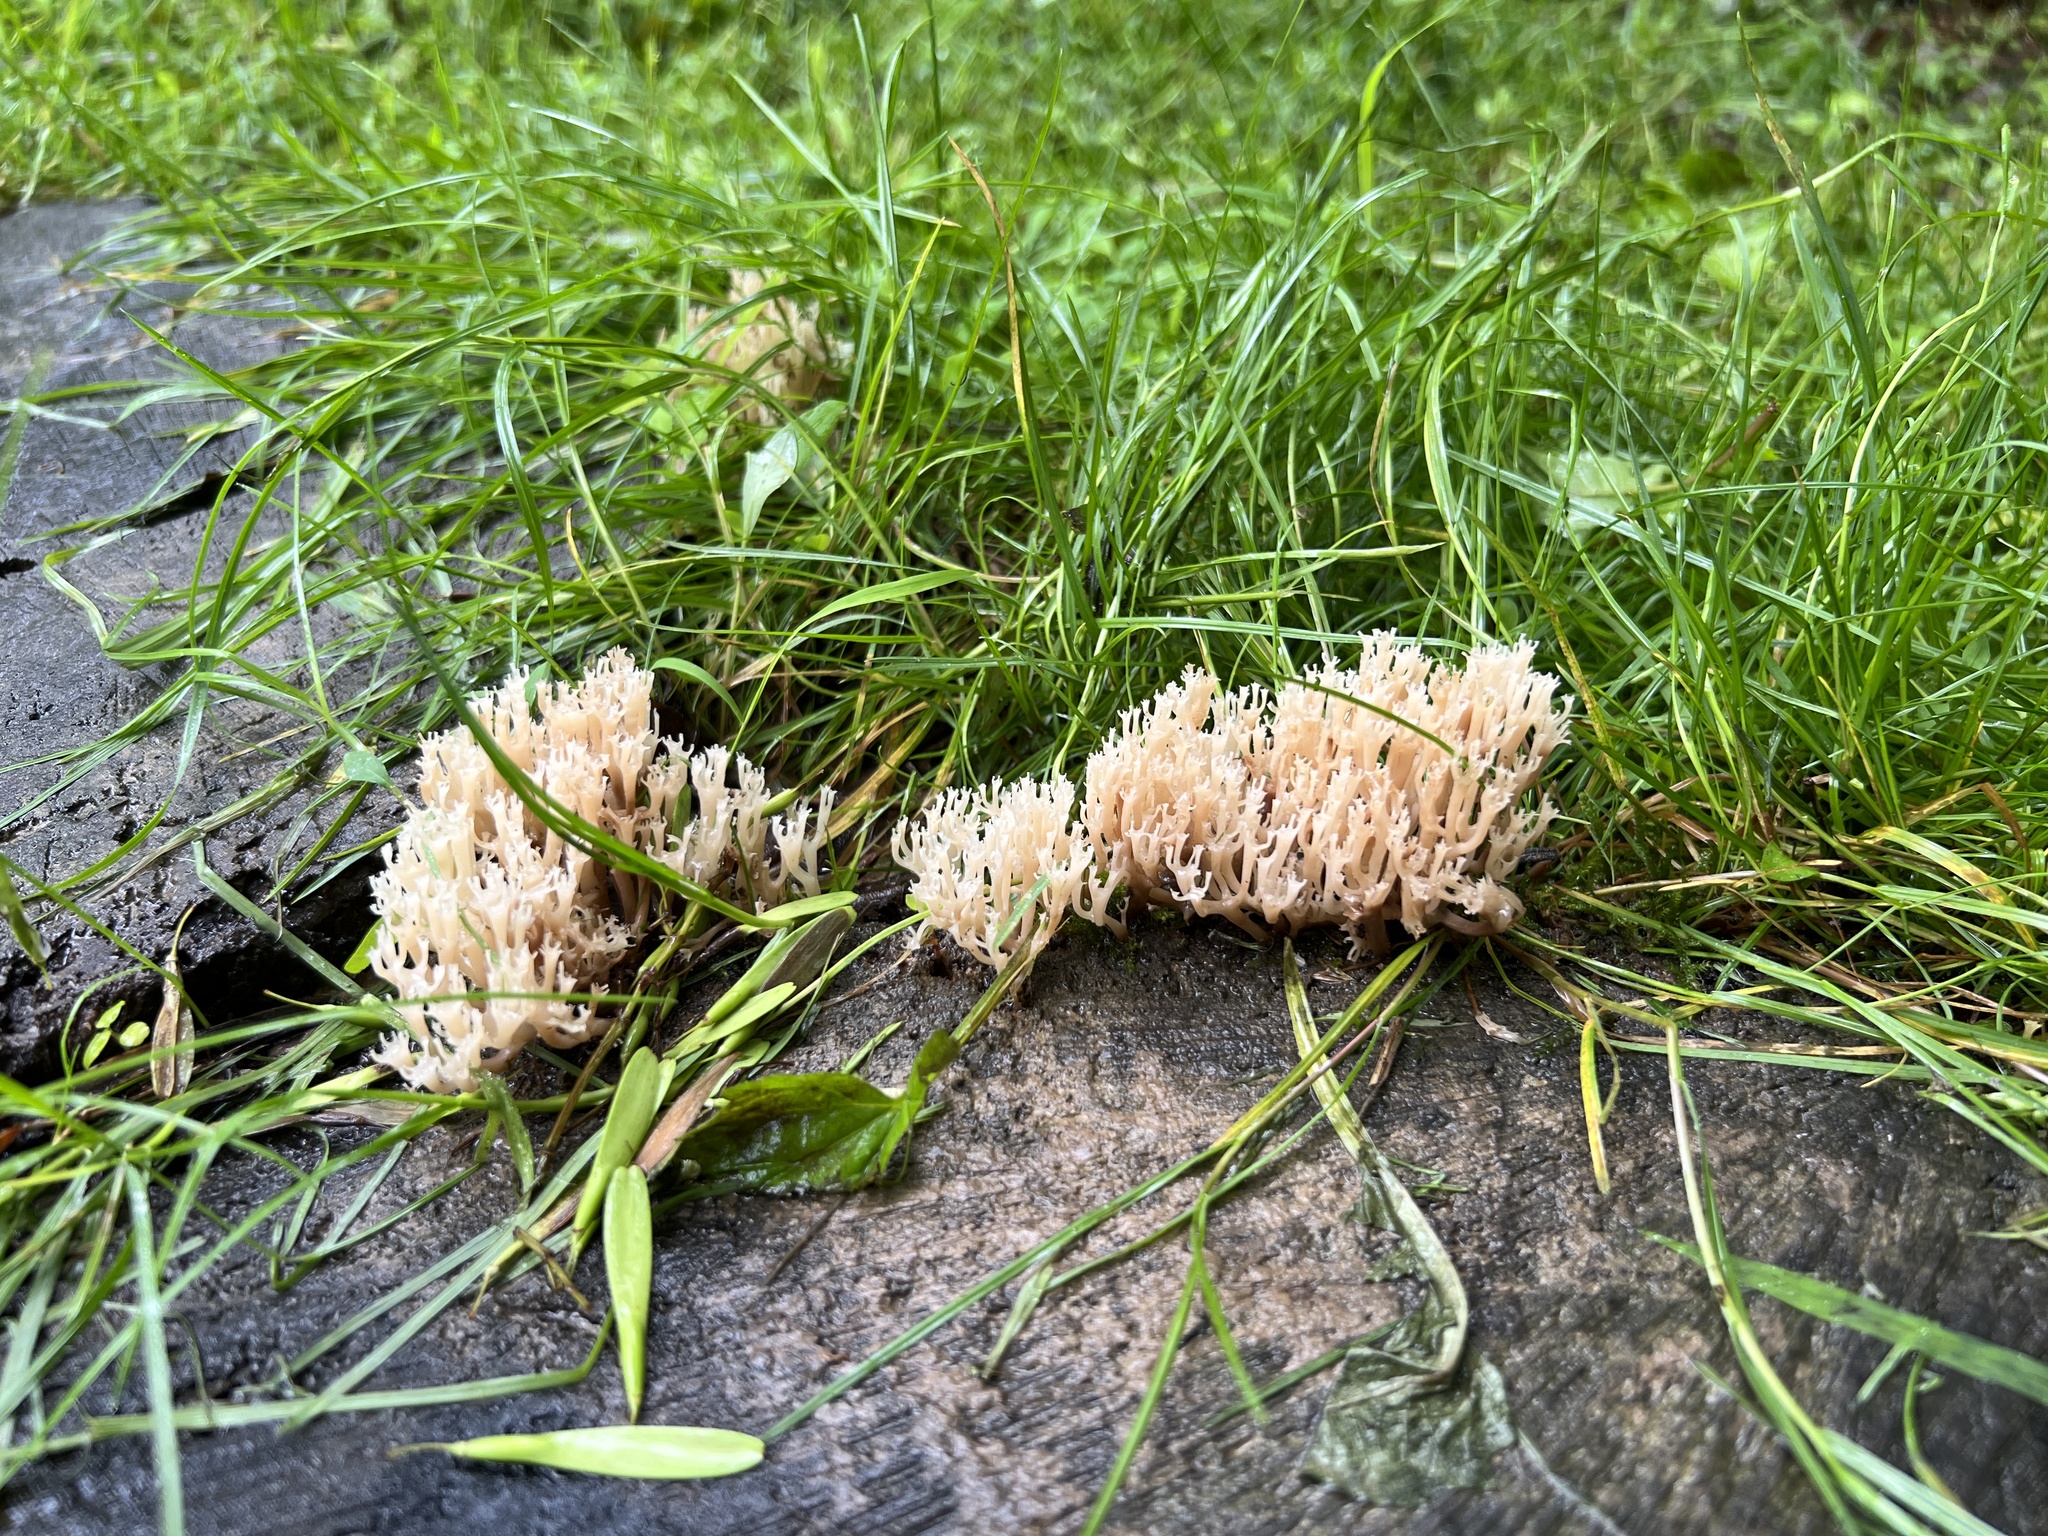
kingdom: Fungi
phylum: Basidiomycota
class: Agaricomycetes
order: Russulales
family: Auriscalpiaceae
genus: Artomyces
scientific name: Artomyces pyxidatus
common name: Crown-tipped coral fungus
